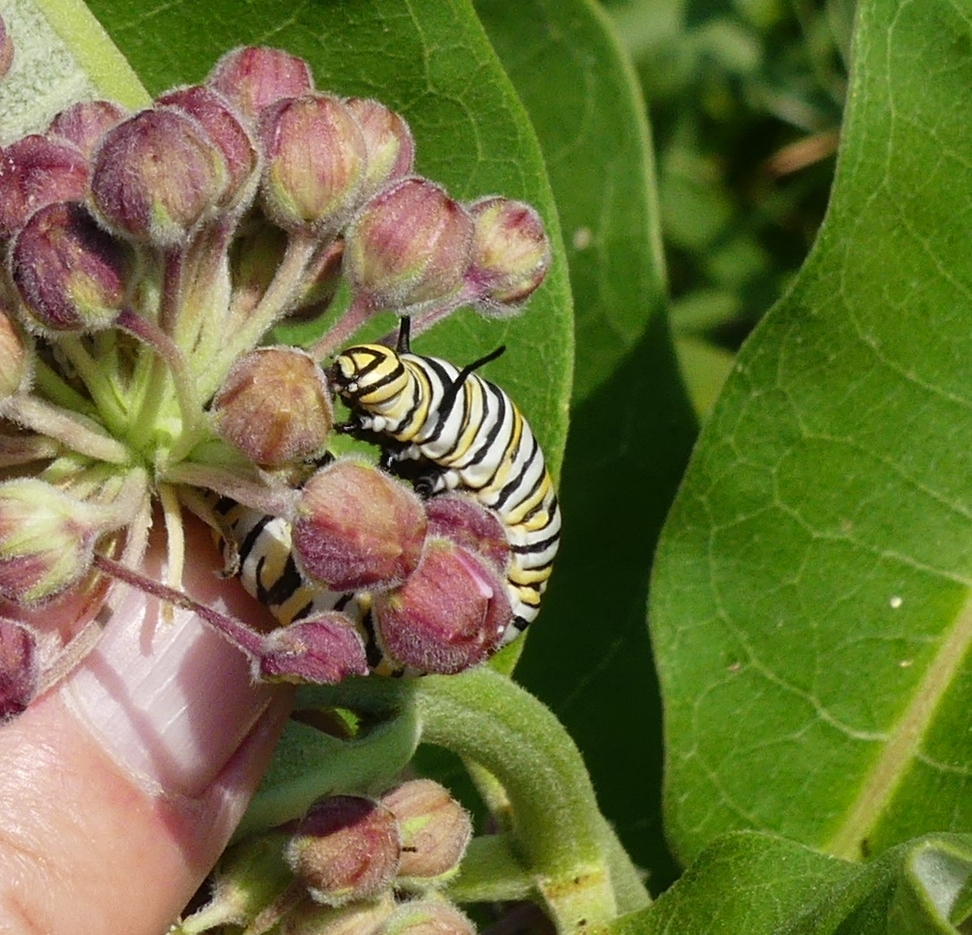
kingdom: Animalia
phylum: Arthropoda
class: Insecta
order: Lepidoptera
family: Nymphalidae
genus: Danaus
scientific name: Danaus plexippus
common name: Monarch
